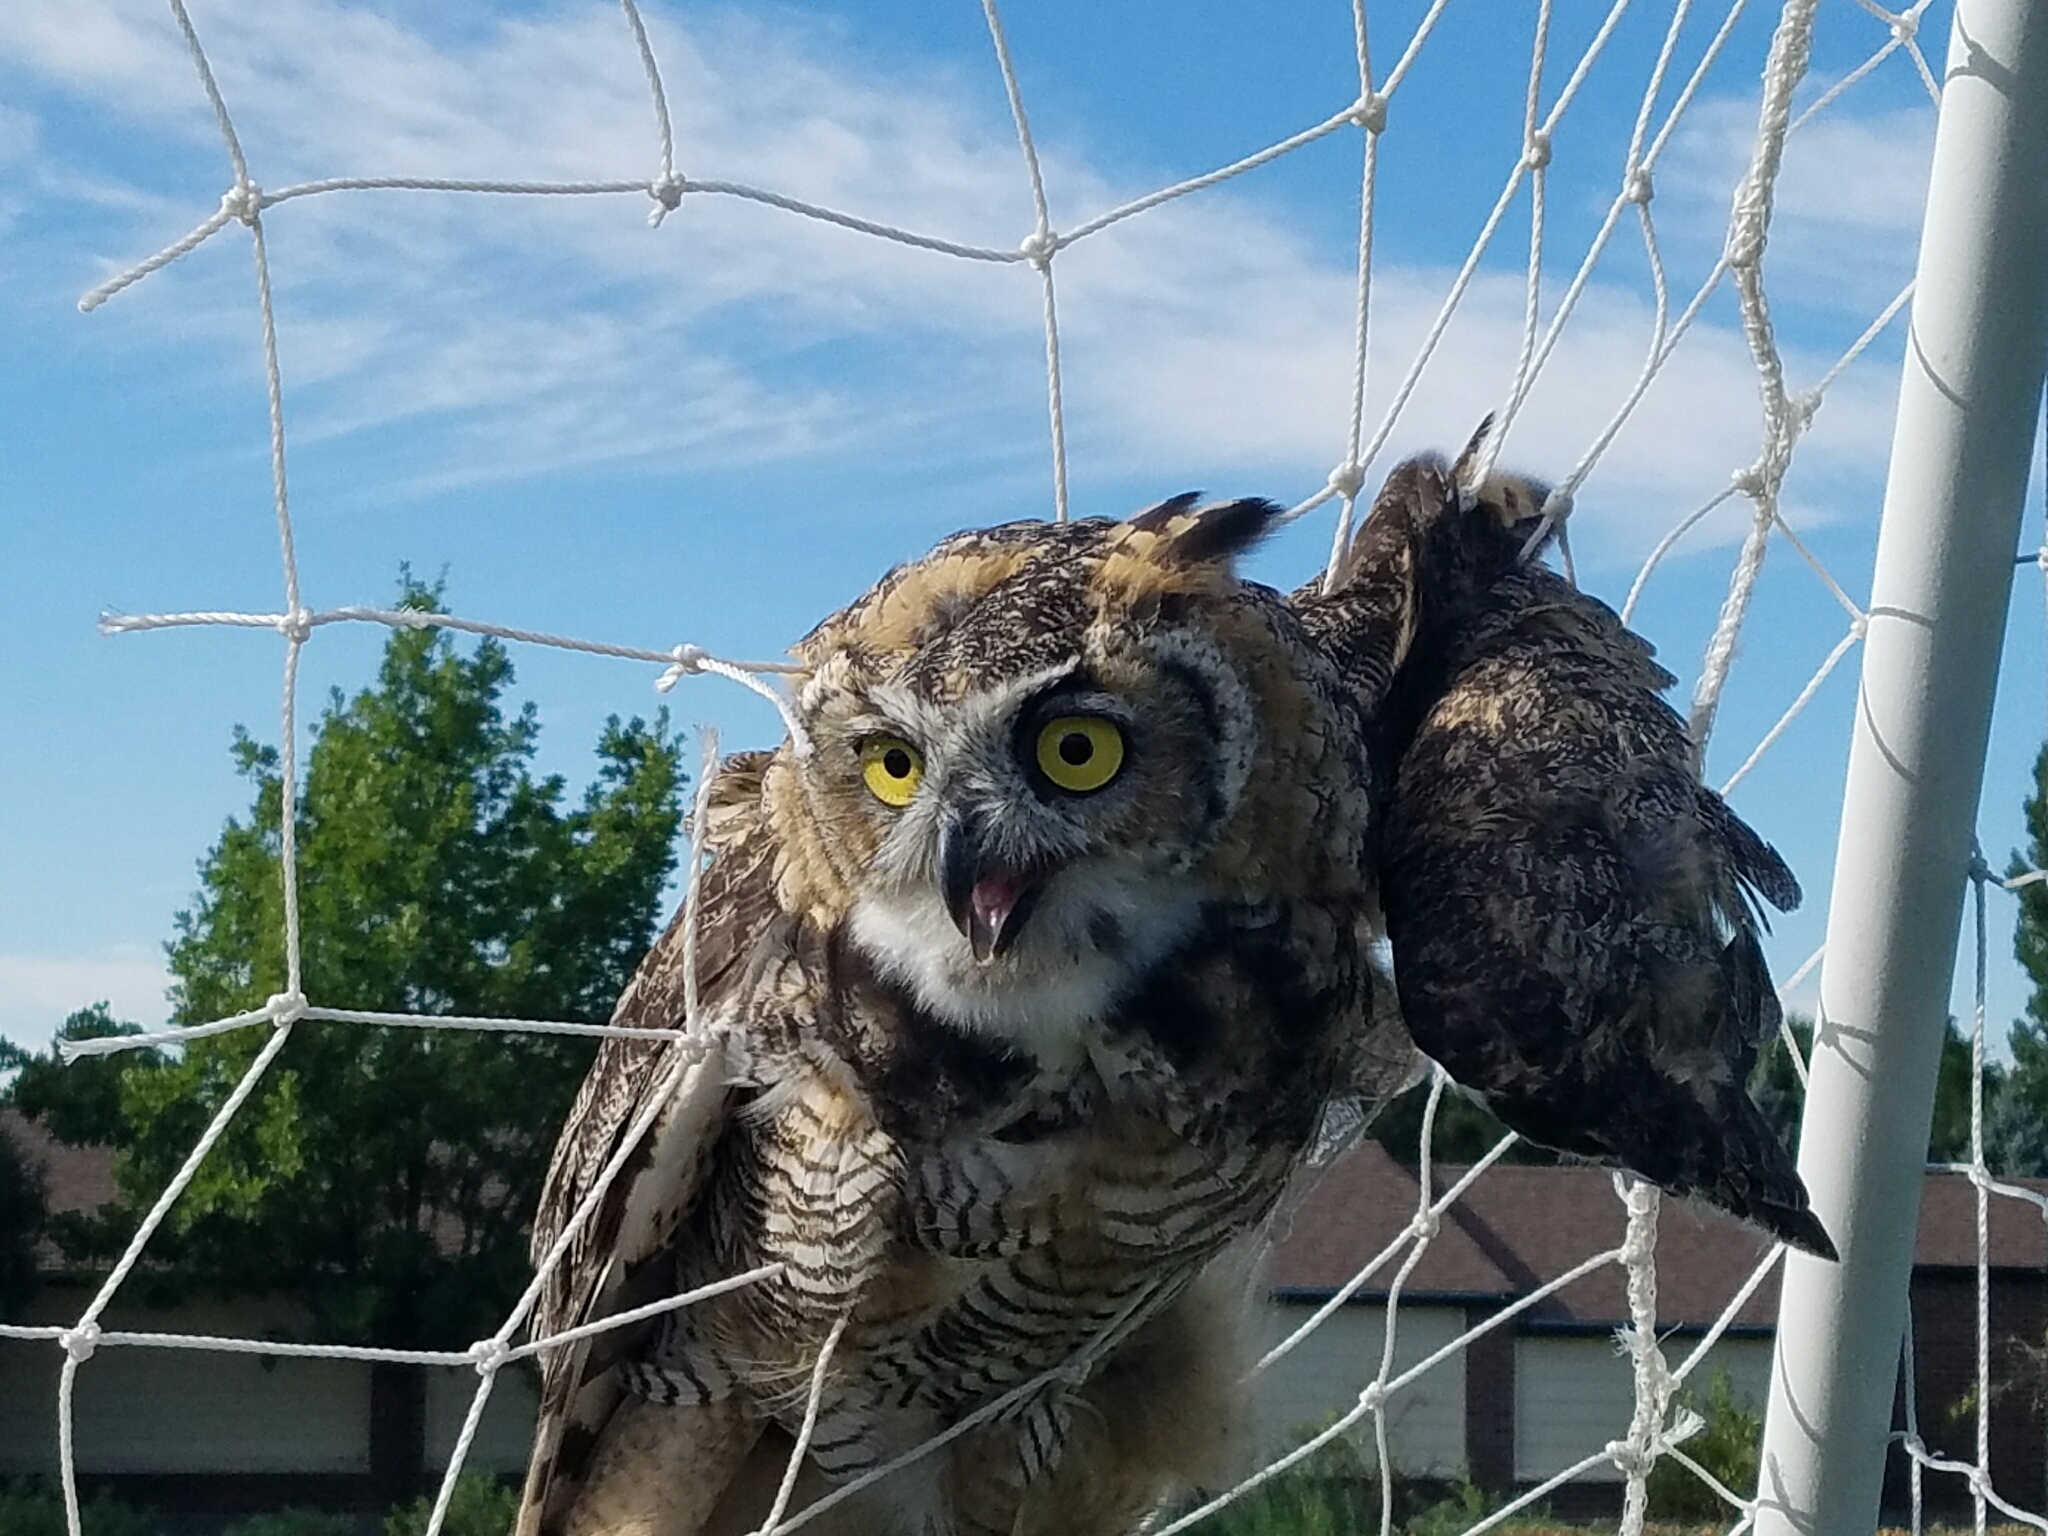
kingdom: Animalia
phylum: Chordata
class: Aves
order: Strigiformes
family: Strigidae
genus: Bubo
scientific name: Bubo virginianus
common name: Great horned owl
